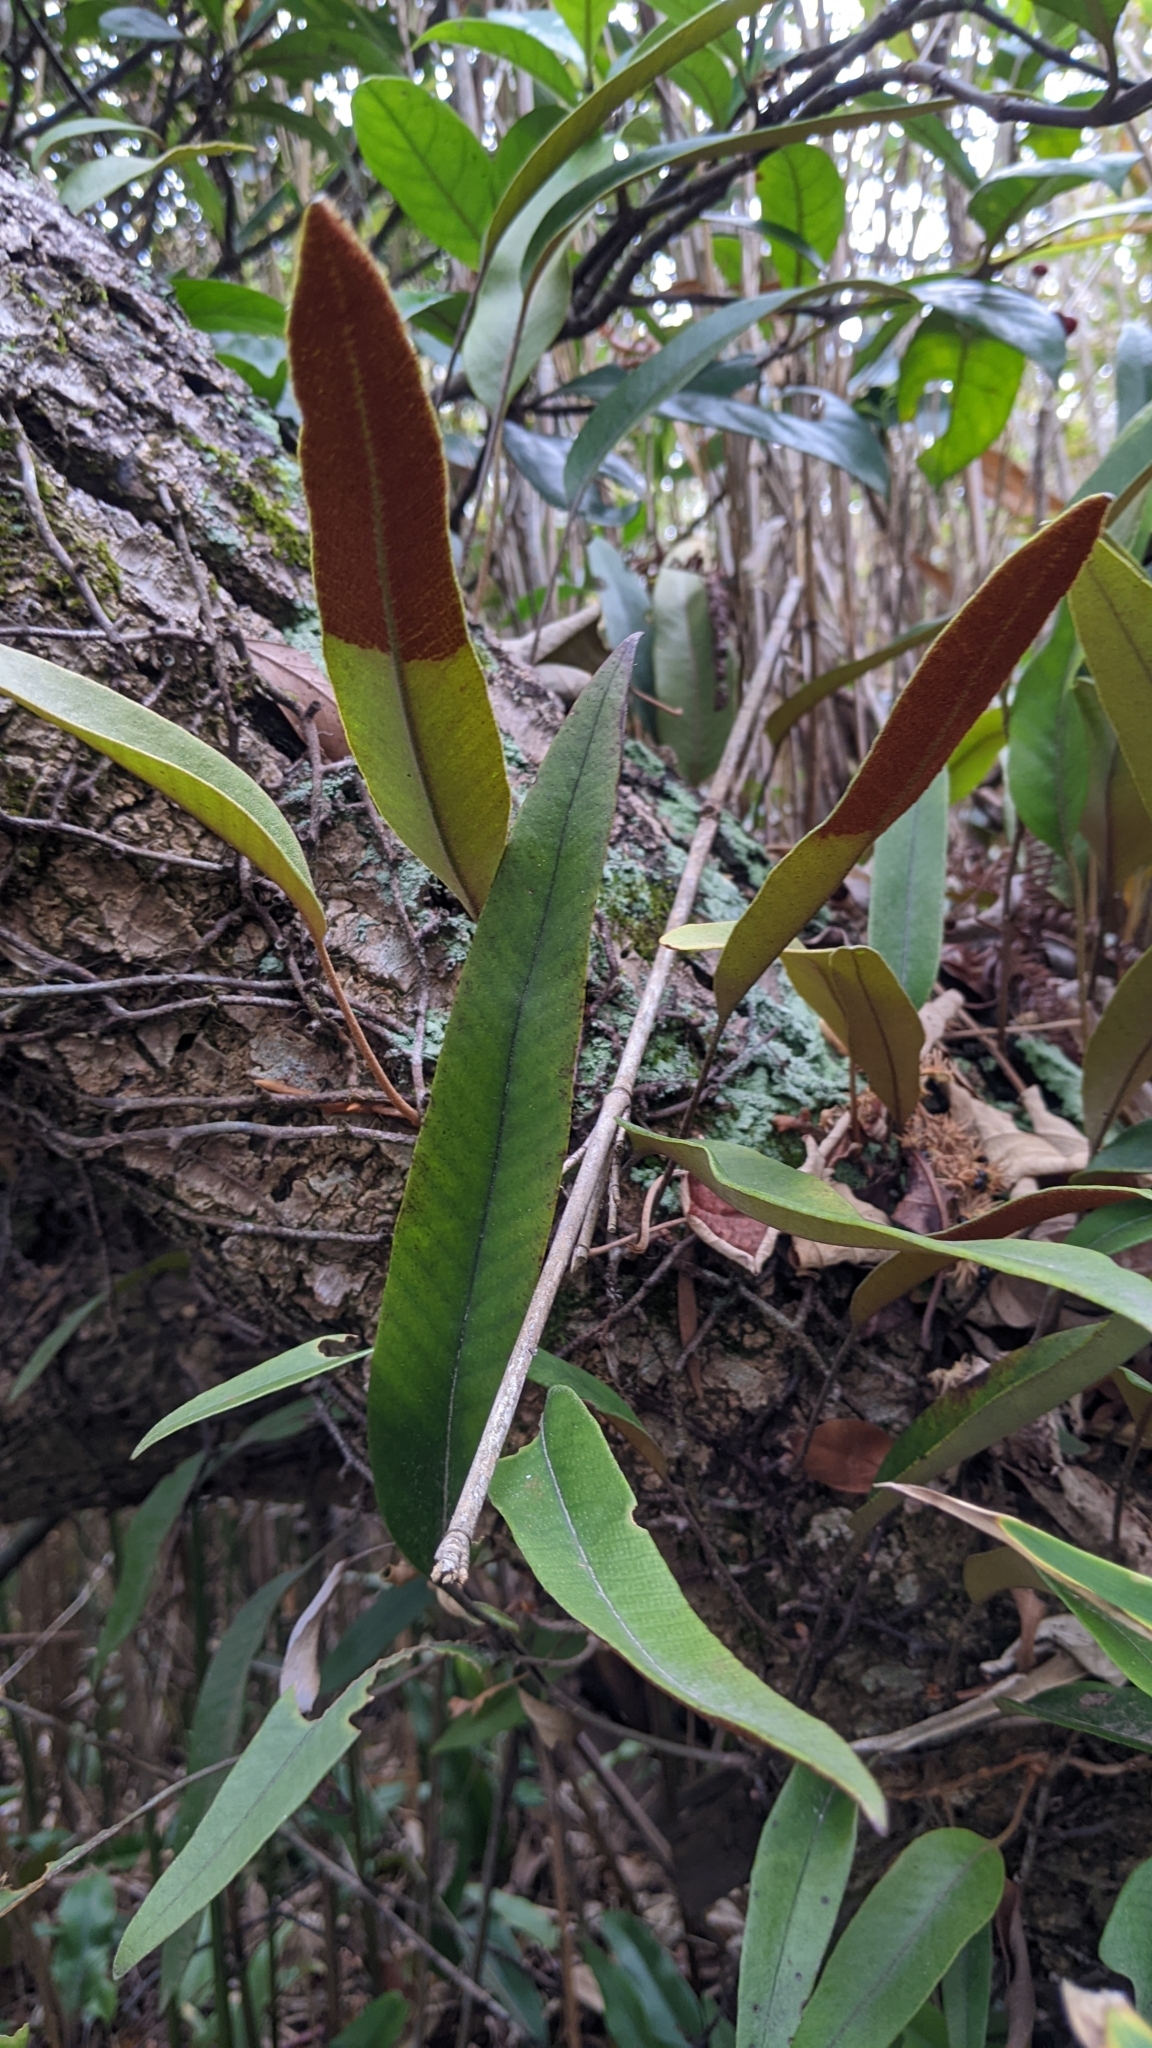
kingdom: Plantae
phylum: Tracheophyta
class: Polypodiopsida
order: Polypodiales
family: Polypodiaceae
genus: Pyrrosia
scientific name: Pyrrosia lingua
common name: Felt fern
